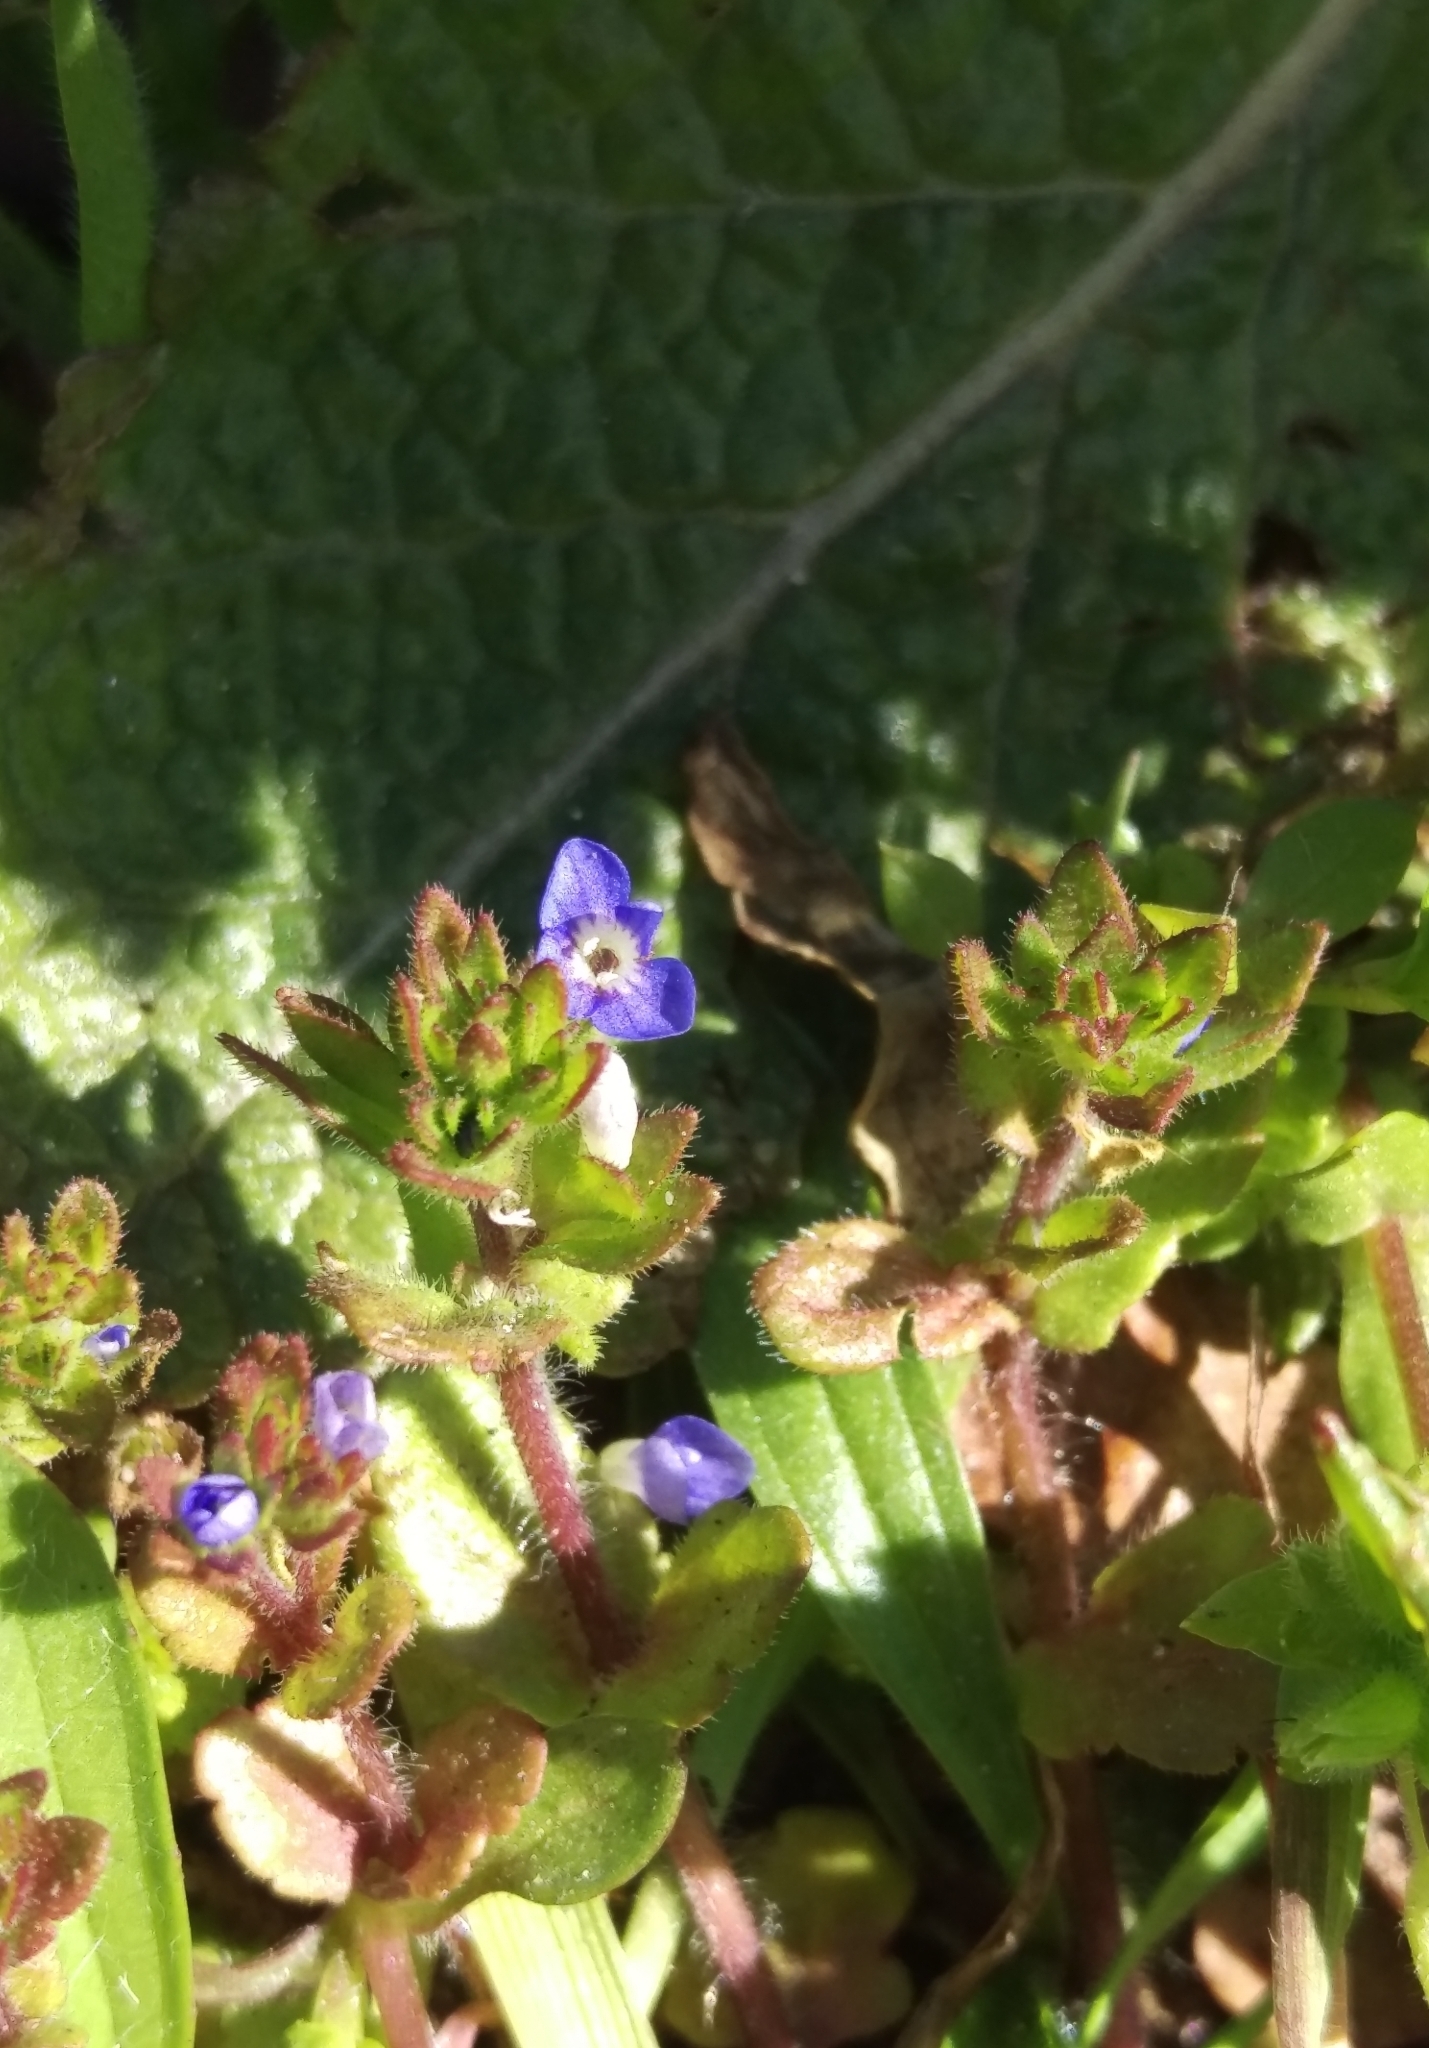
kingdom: Plantae
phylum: Tracheophyta
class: Magnoliopsida
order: Lamiales
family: Plantaginaceae
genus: Veronica
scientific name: Veronica arvensis
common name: Corn speedwell
